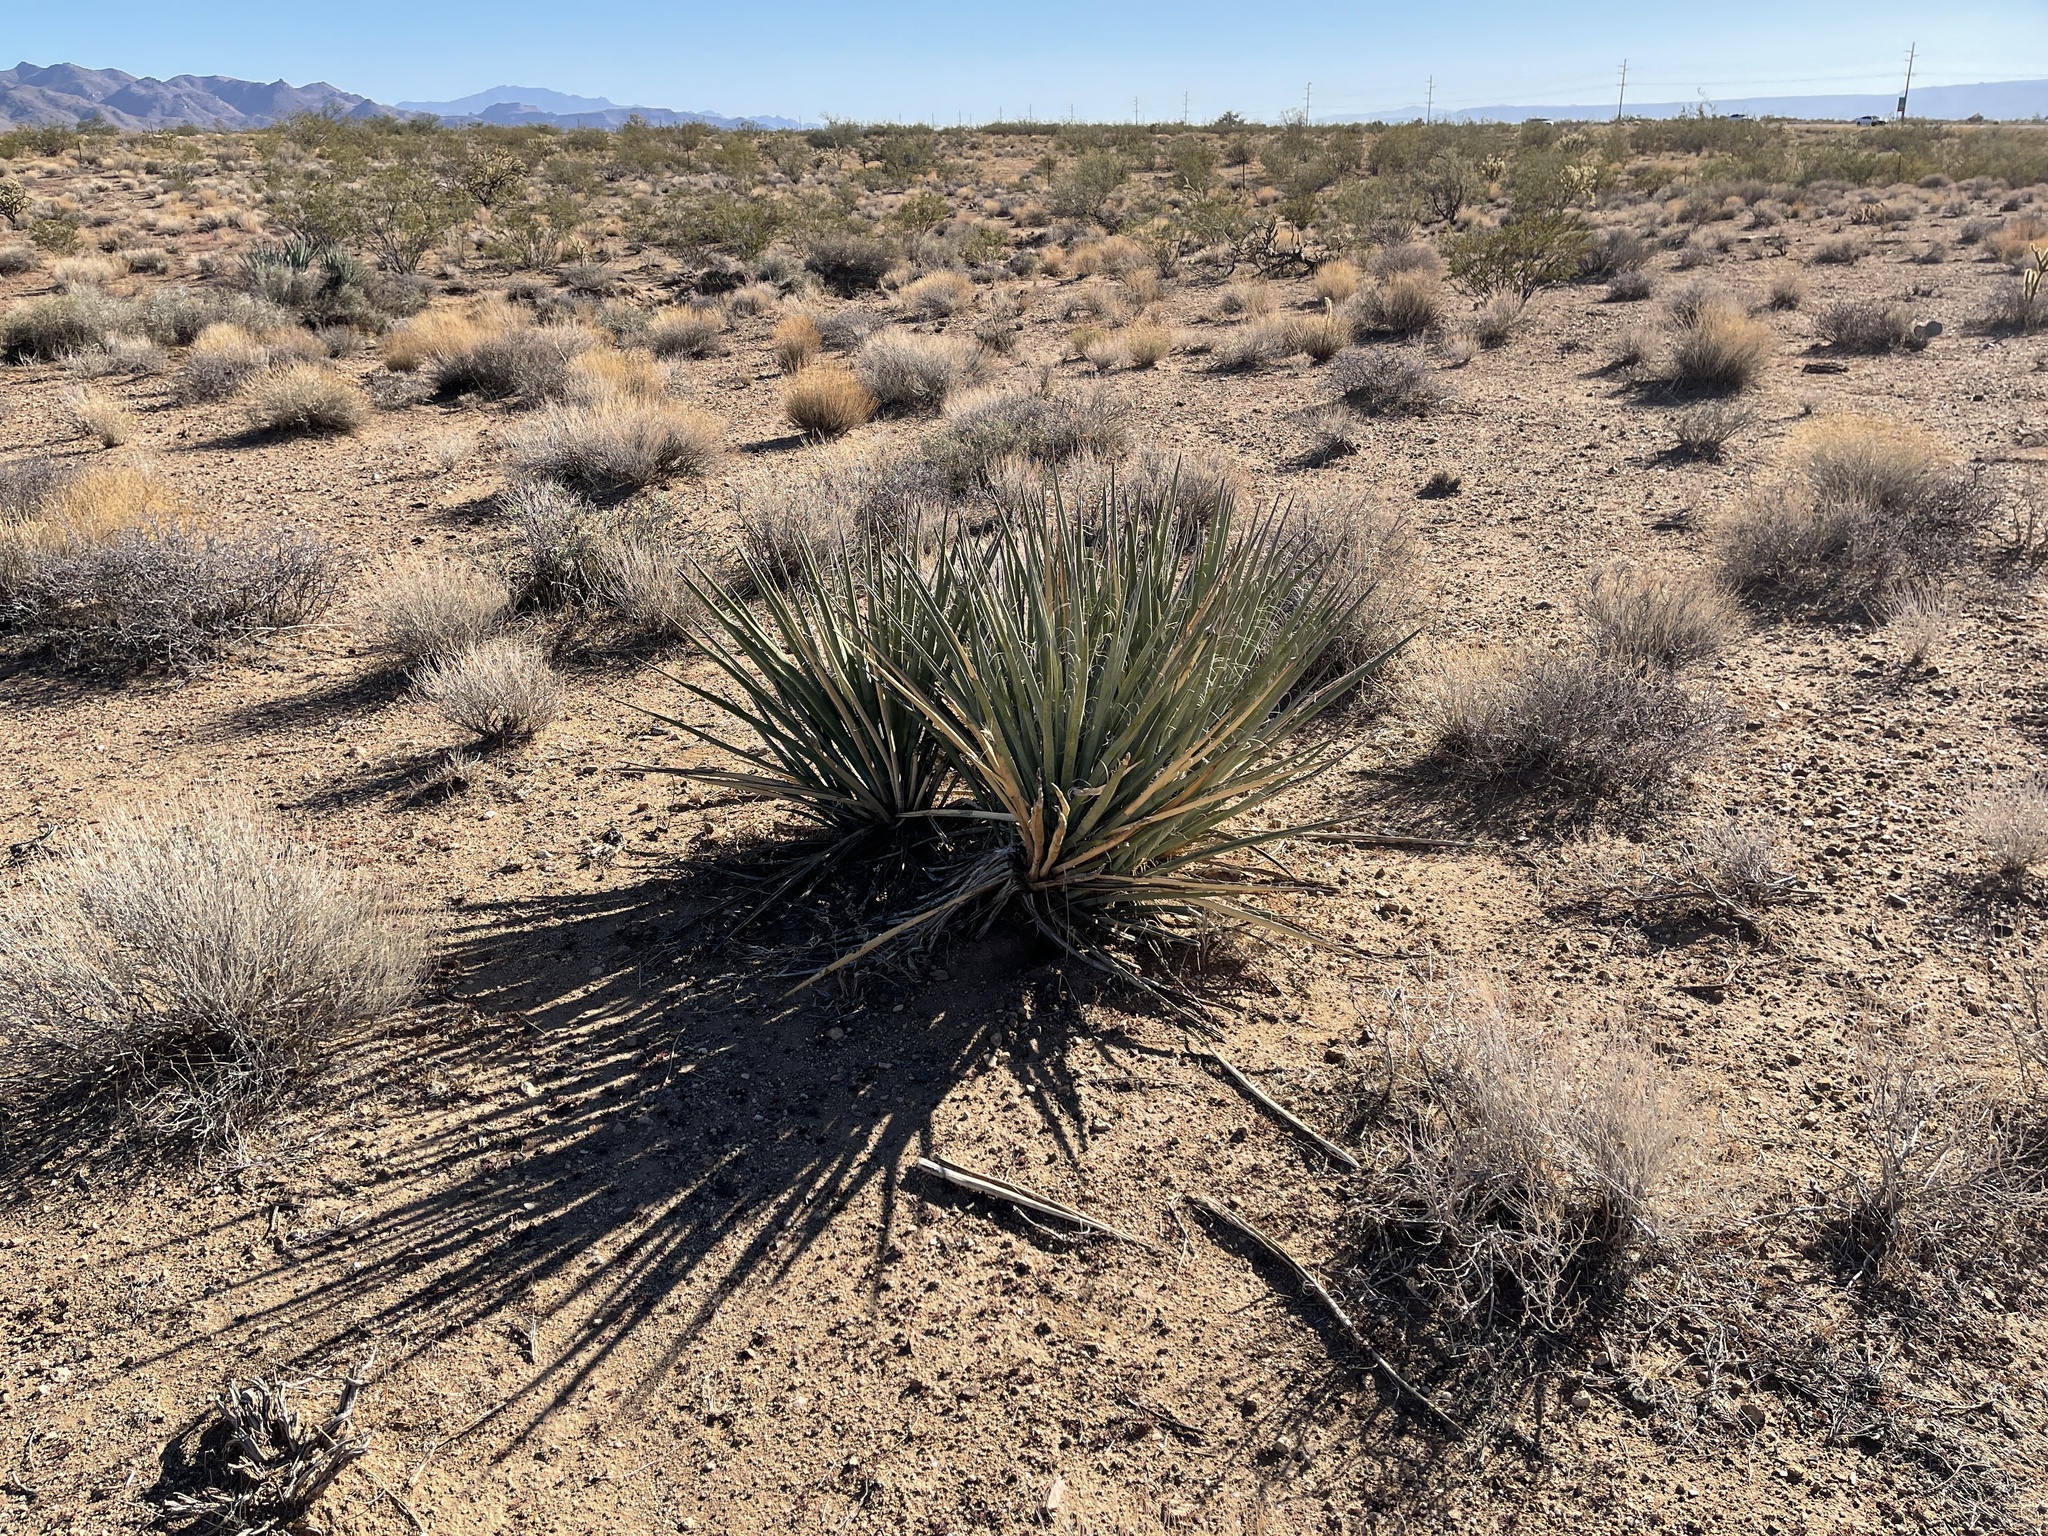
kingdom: Plantae
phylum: Tracheophyta
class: Liliopsida
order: Asparagales
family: Asparagaceae
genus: Yucca
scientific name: Yucca baccata
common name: Banana yucca
